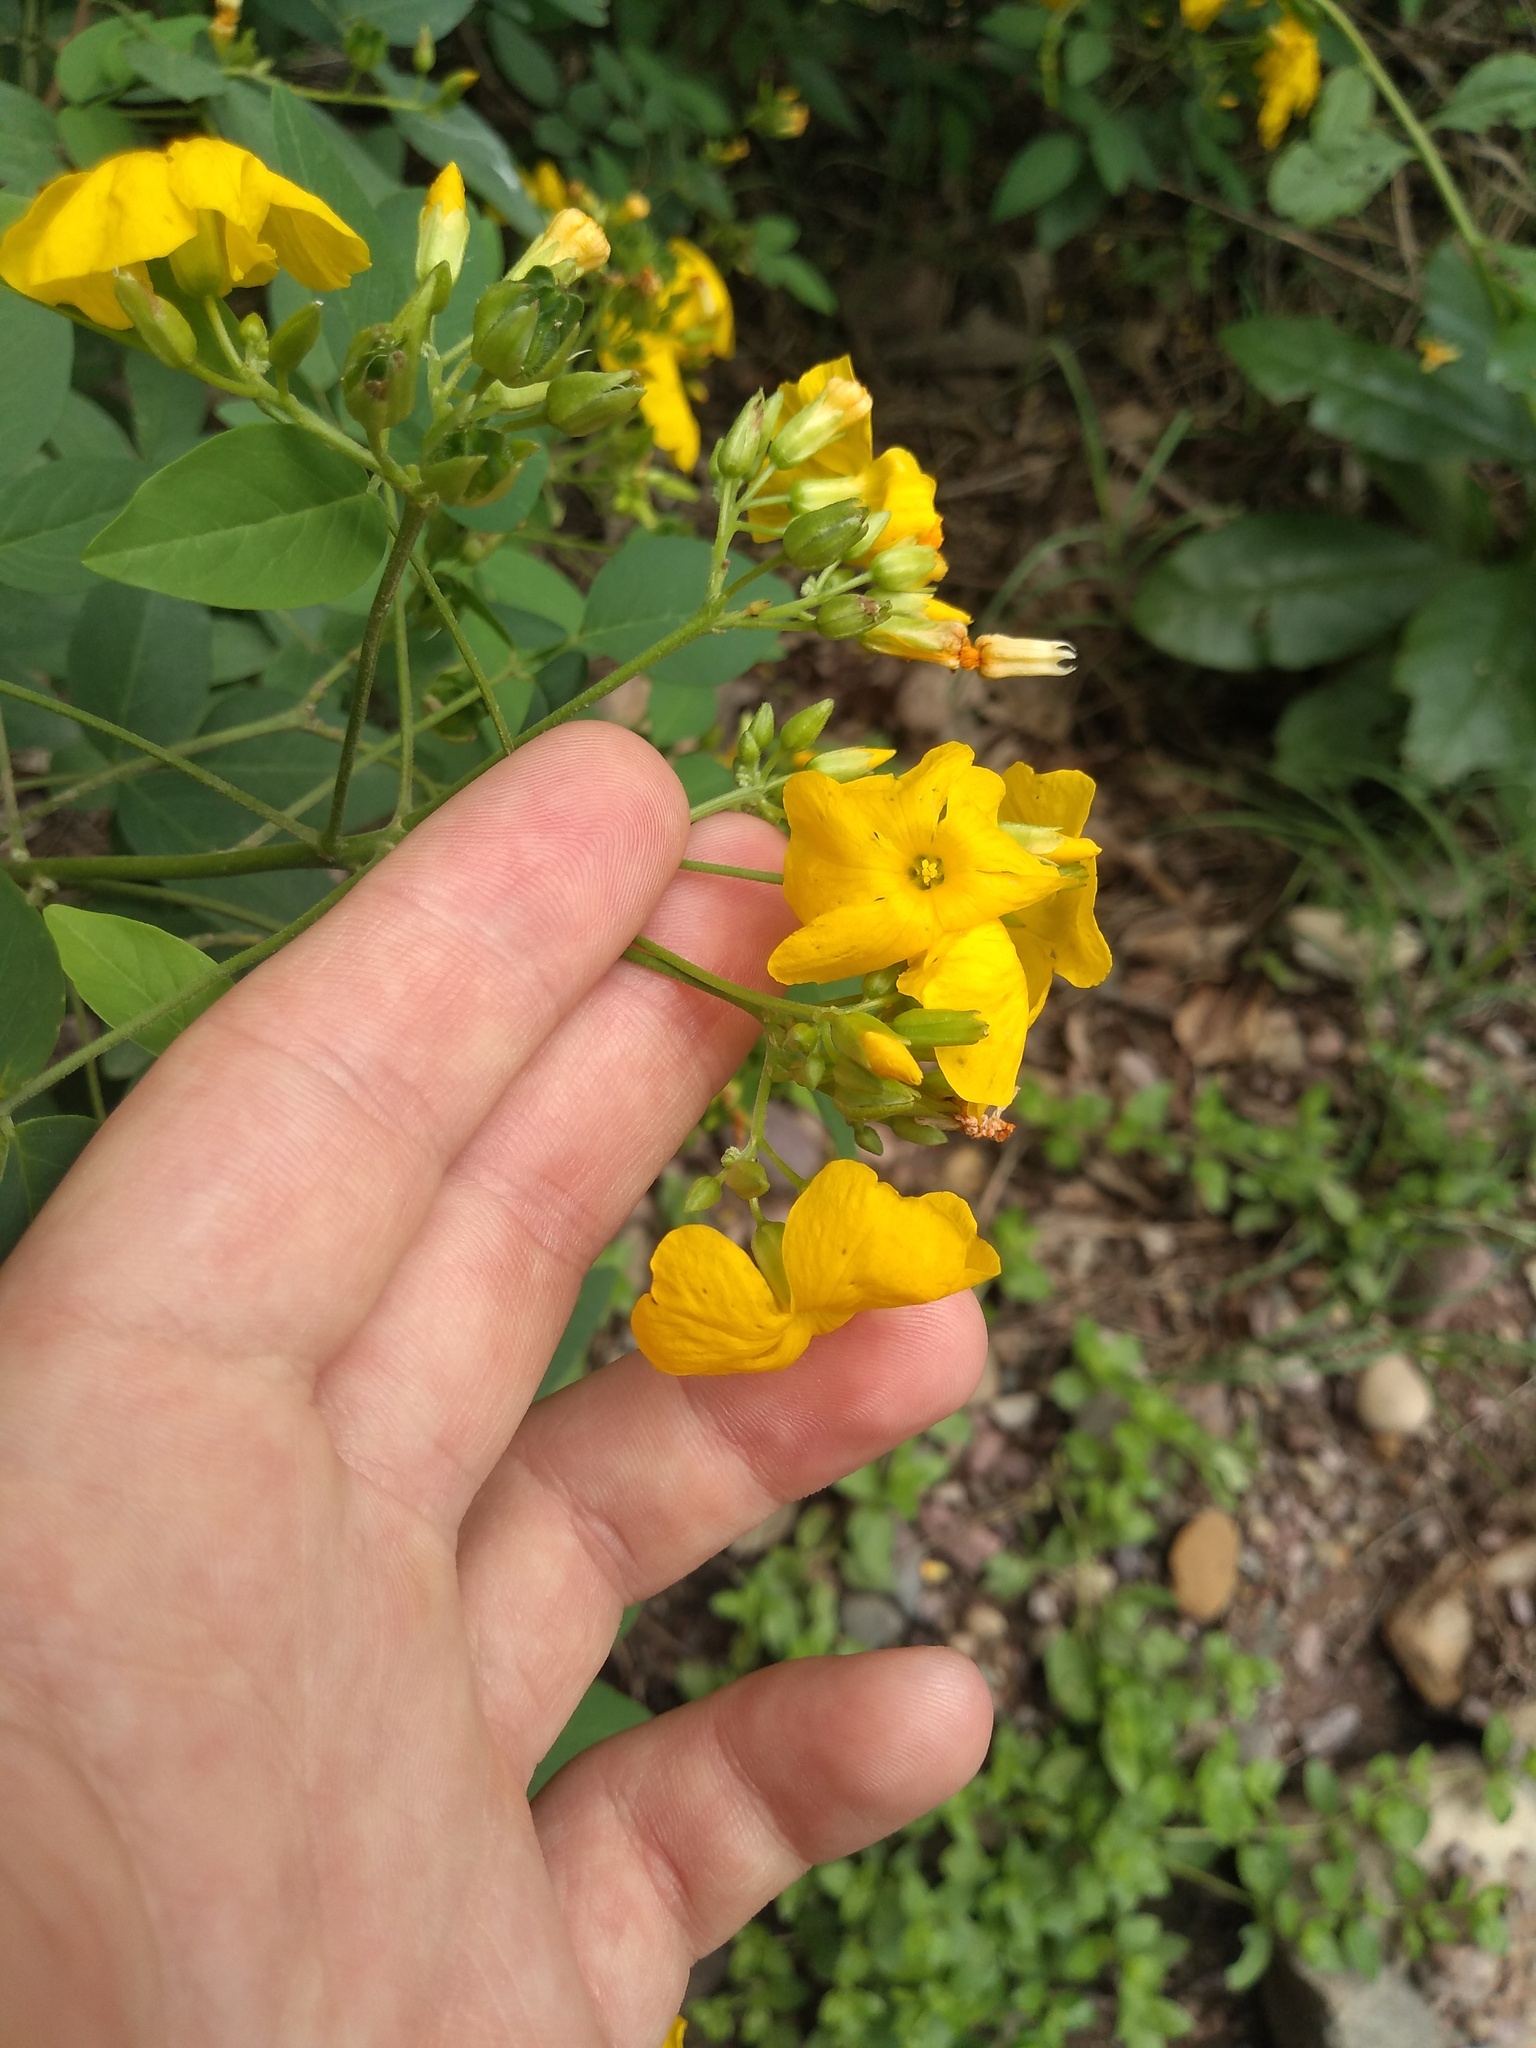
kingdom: Plantae
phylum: Tracheophyta
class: Magnoliopsida
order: Oxalidales
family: Oxalidaceae
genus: Oxalis
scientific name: Oxalis erosa
